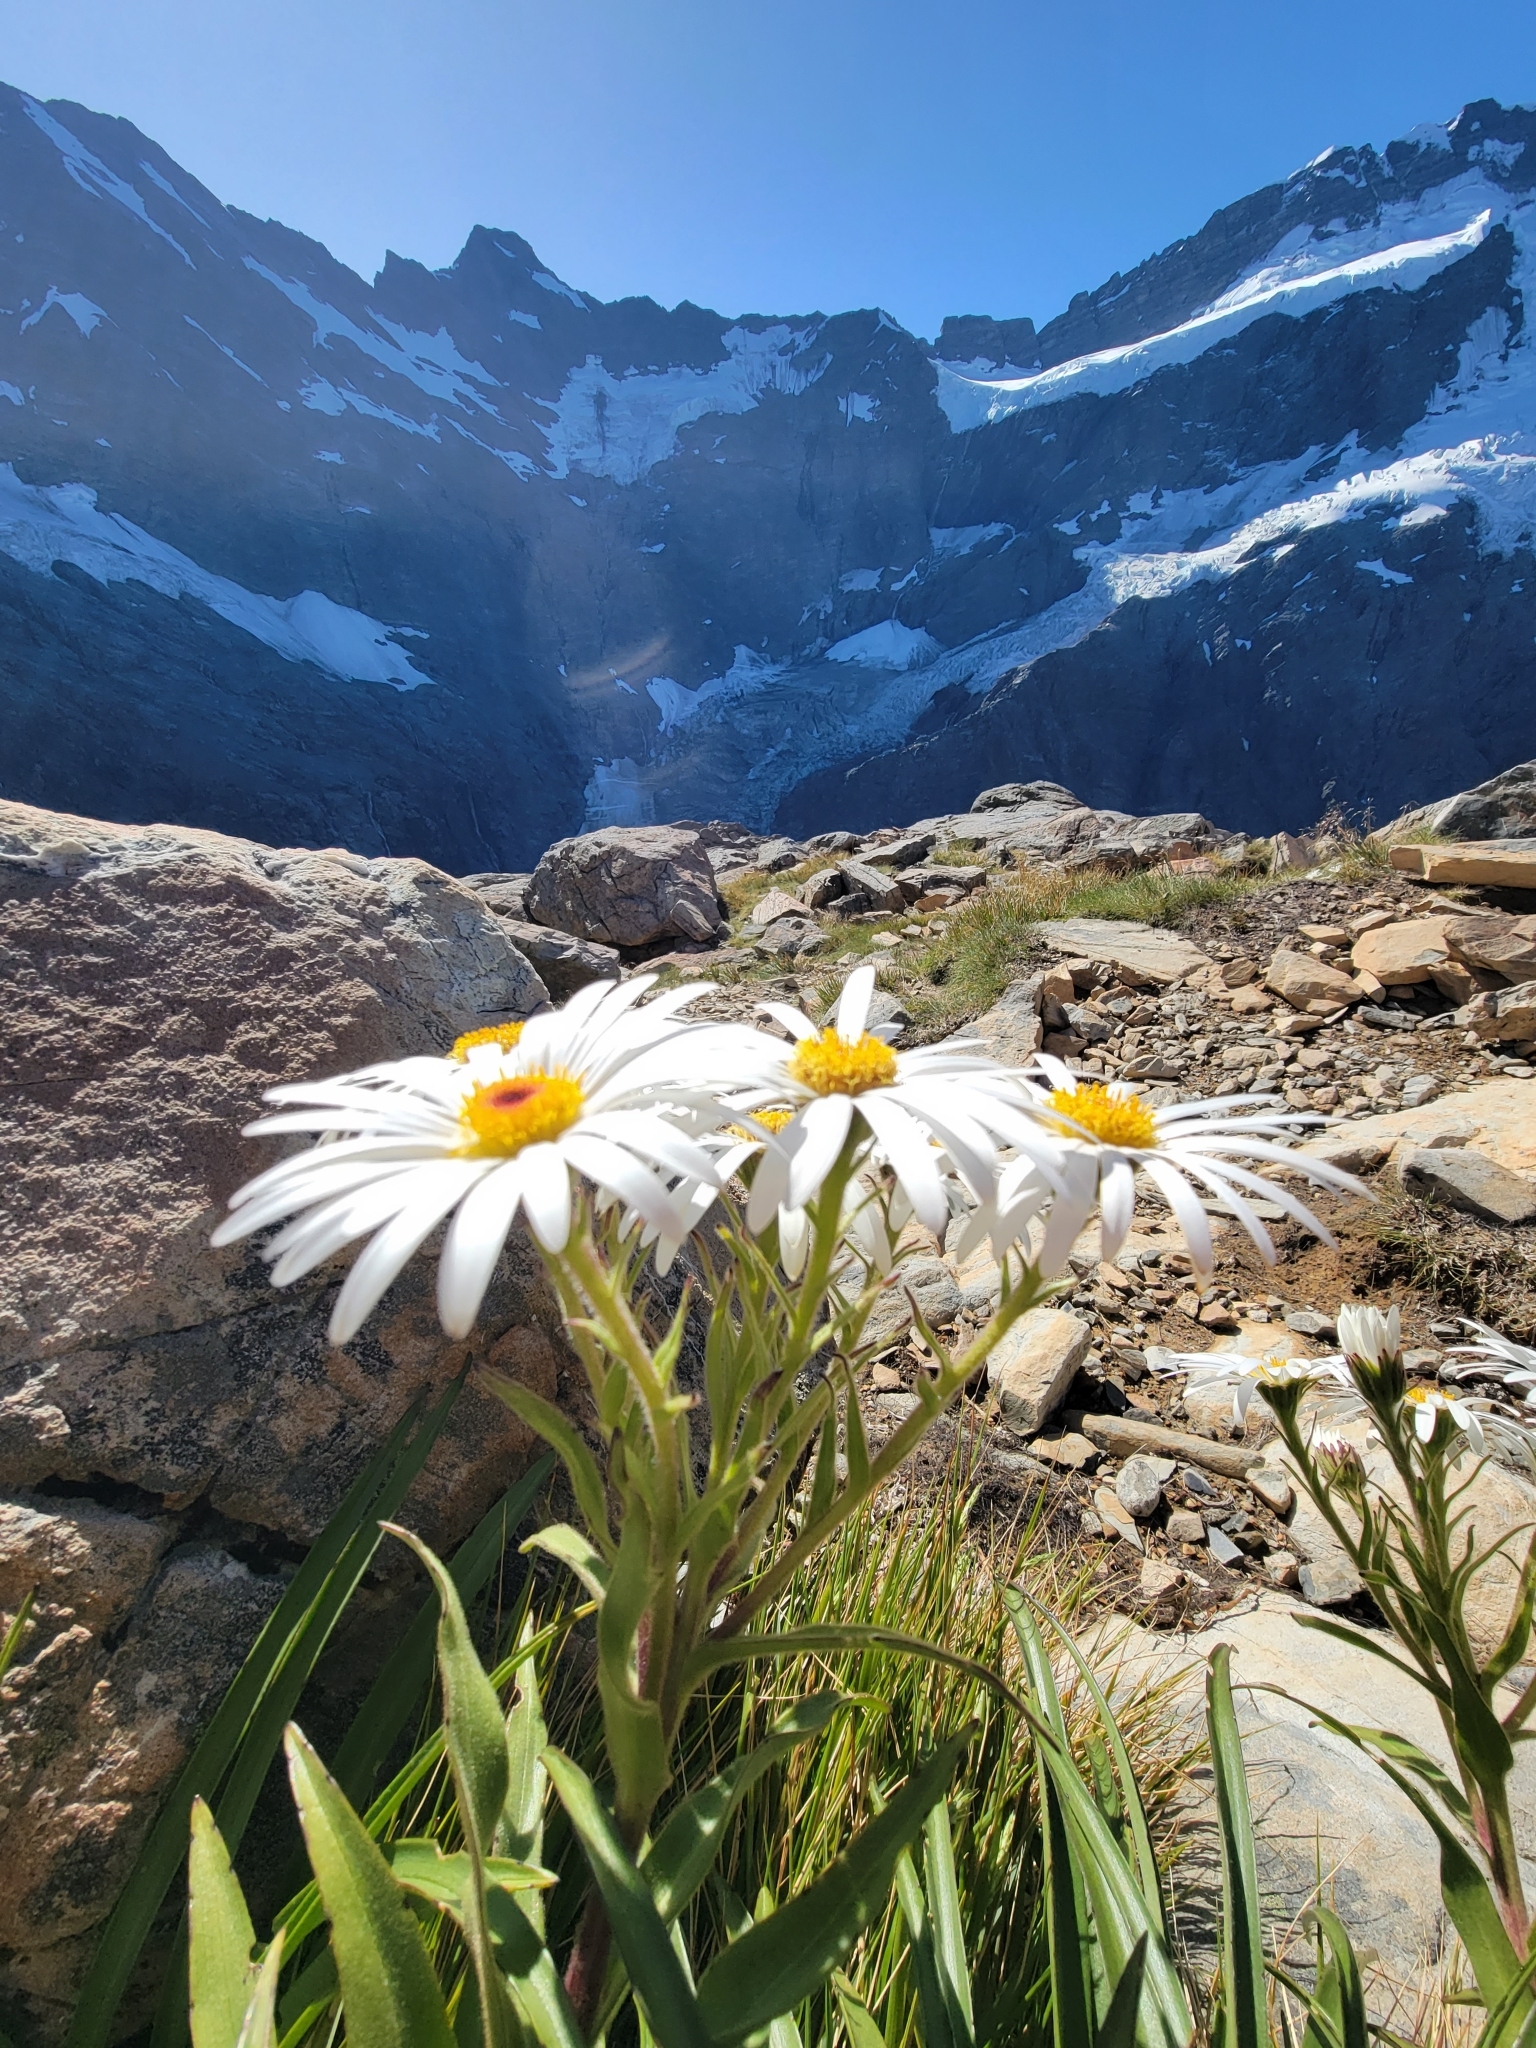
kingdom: Plantae
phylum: Tracheophyta
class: Magnoliopsida
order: Asterales
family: Asteraceae
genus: Dolichoglottis
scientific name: Dolichoglottis scorzoneroides
